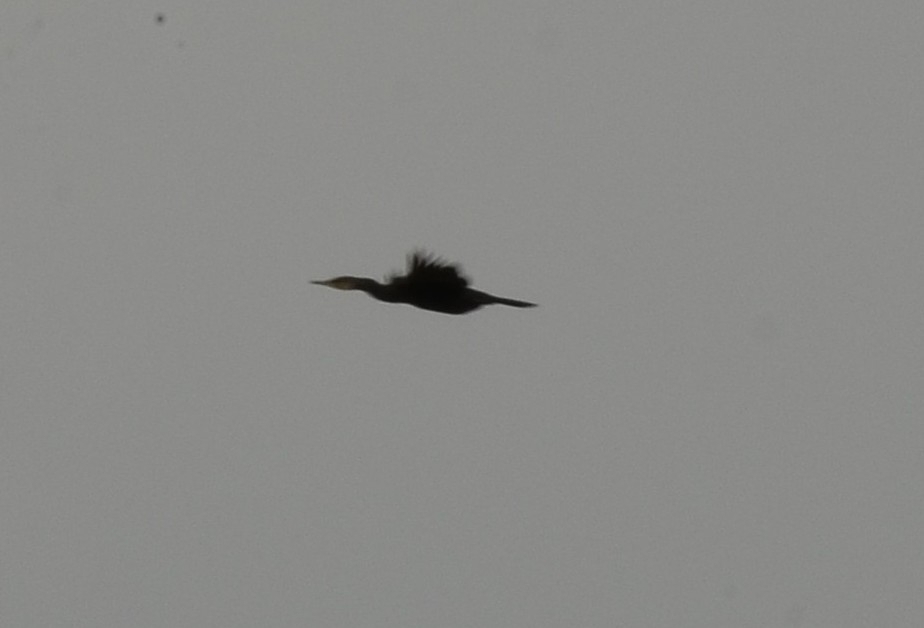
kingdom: Animalia
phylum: Chordata
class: Aves
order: Suliformes
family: Phalacrocoracidae
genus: Phalacrocorax
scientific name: Phalacrocorax fuscicollis
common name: Indian cormorant
